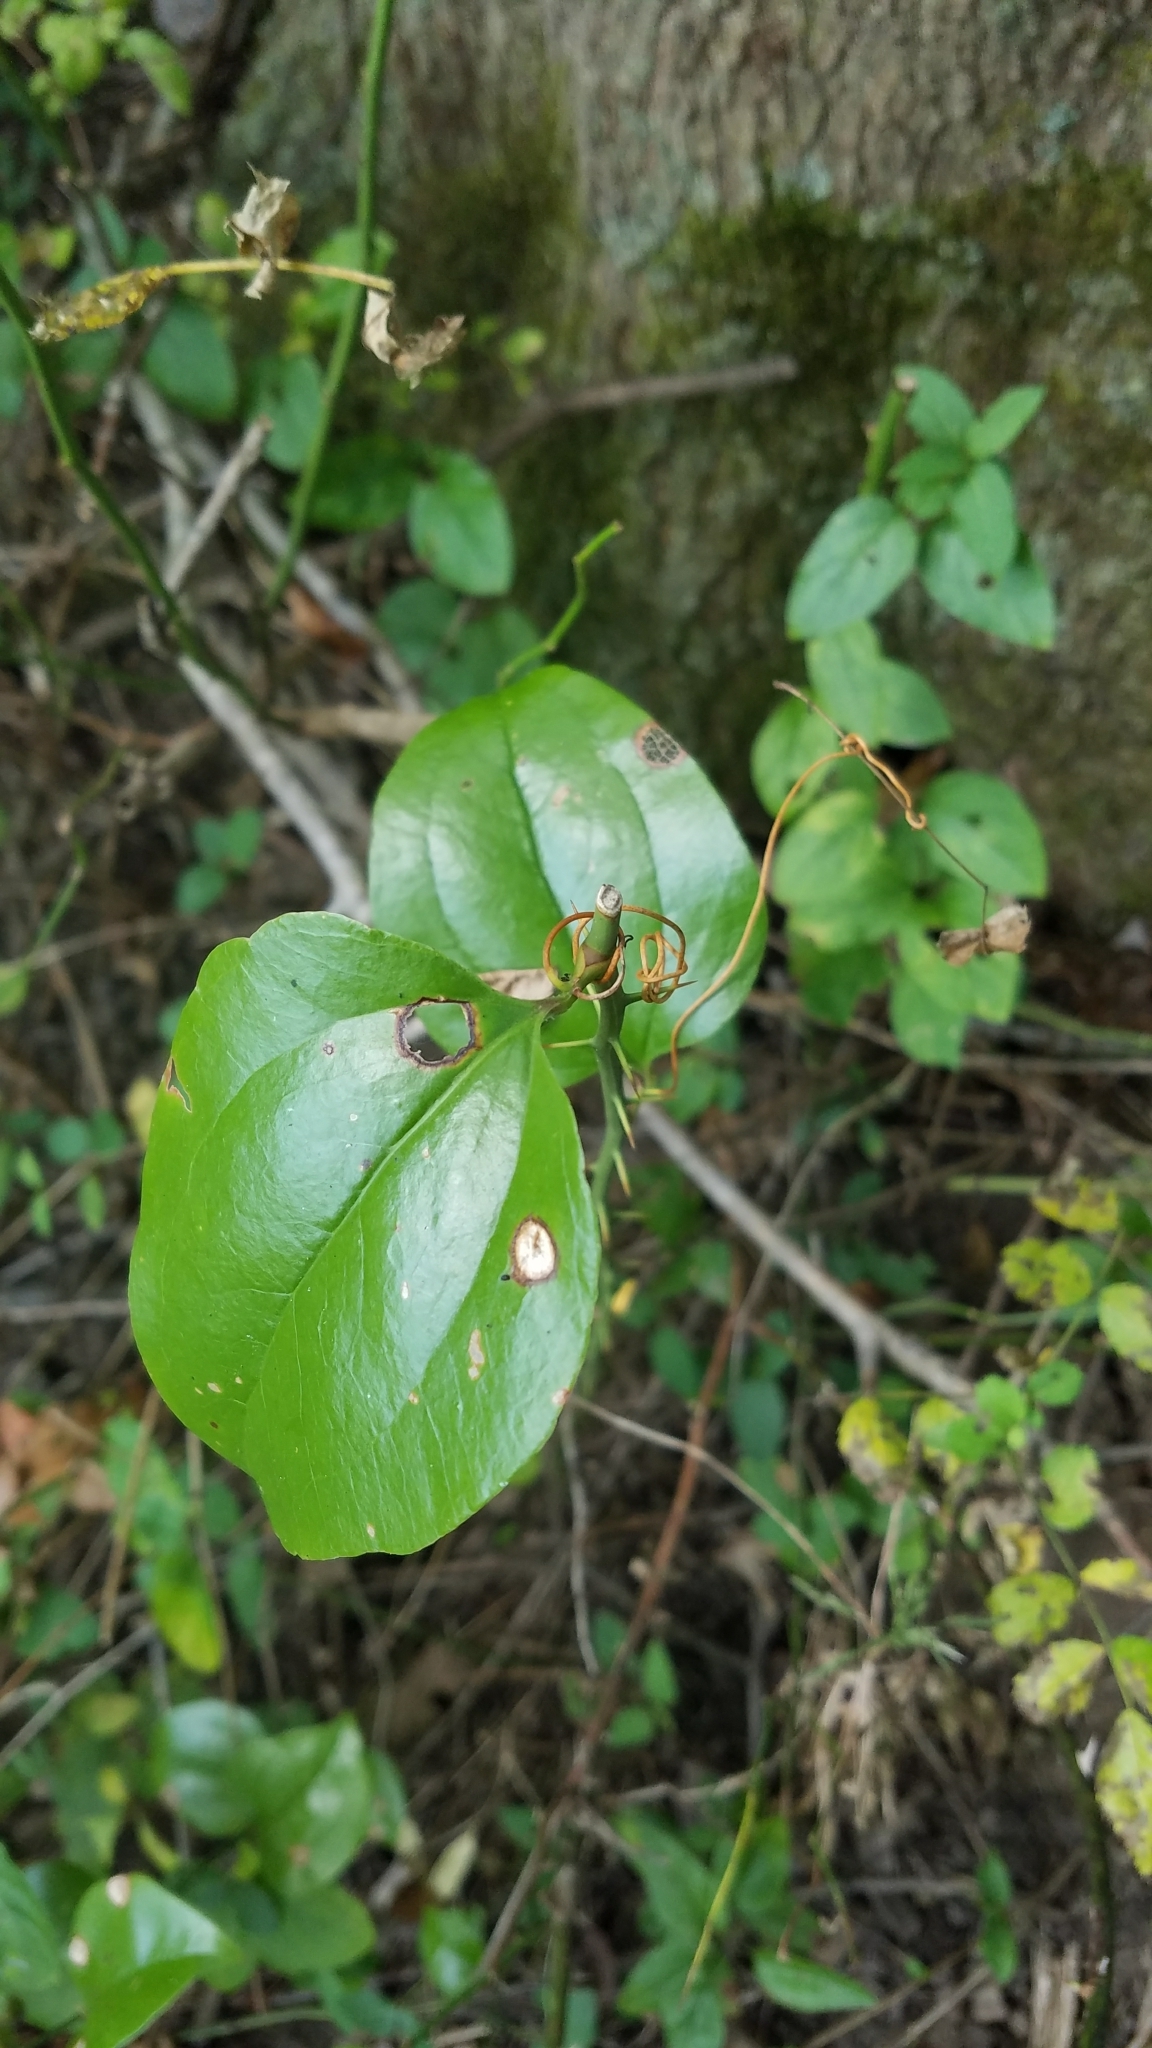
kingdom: Plantae
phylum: Tracheophyta
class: Liliopsida
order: Liliales
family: Smilacaceae
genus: Smilax
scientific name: Smilax rotundifolia
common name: Bullbriar
